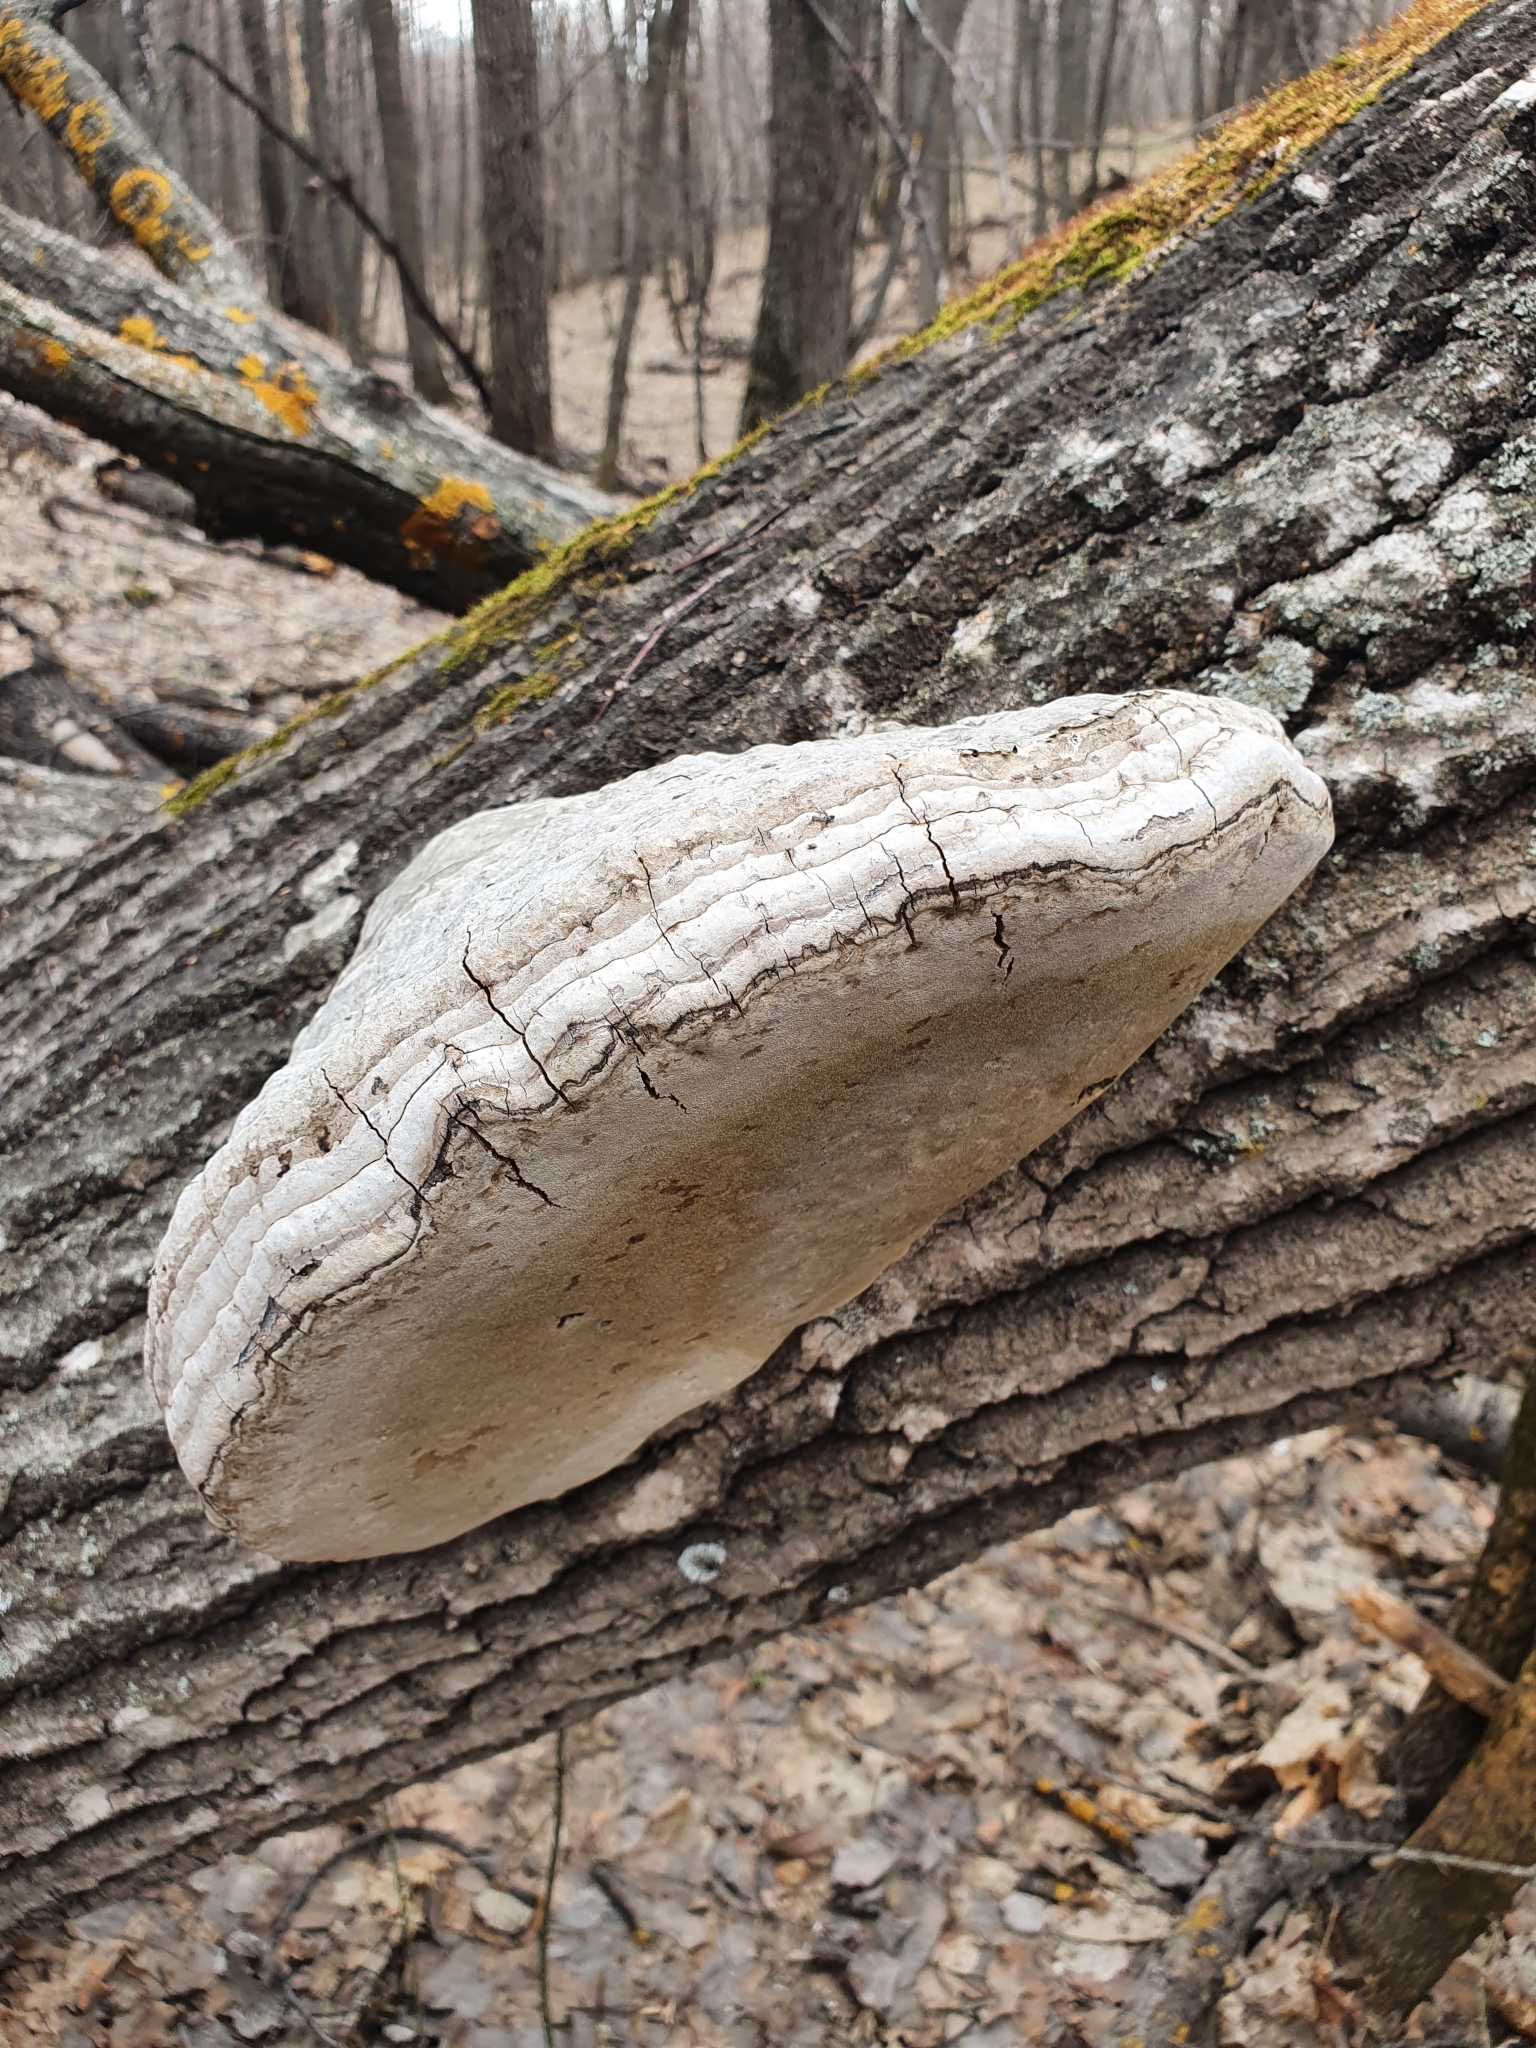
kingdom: Fungi
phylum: Basidiomycota
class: Agaricomycetes
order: Polyporales
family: Polyporaceae
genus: Fomes
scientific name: Fomes fomentarius
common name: Hoof fungus
